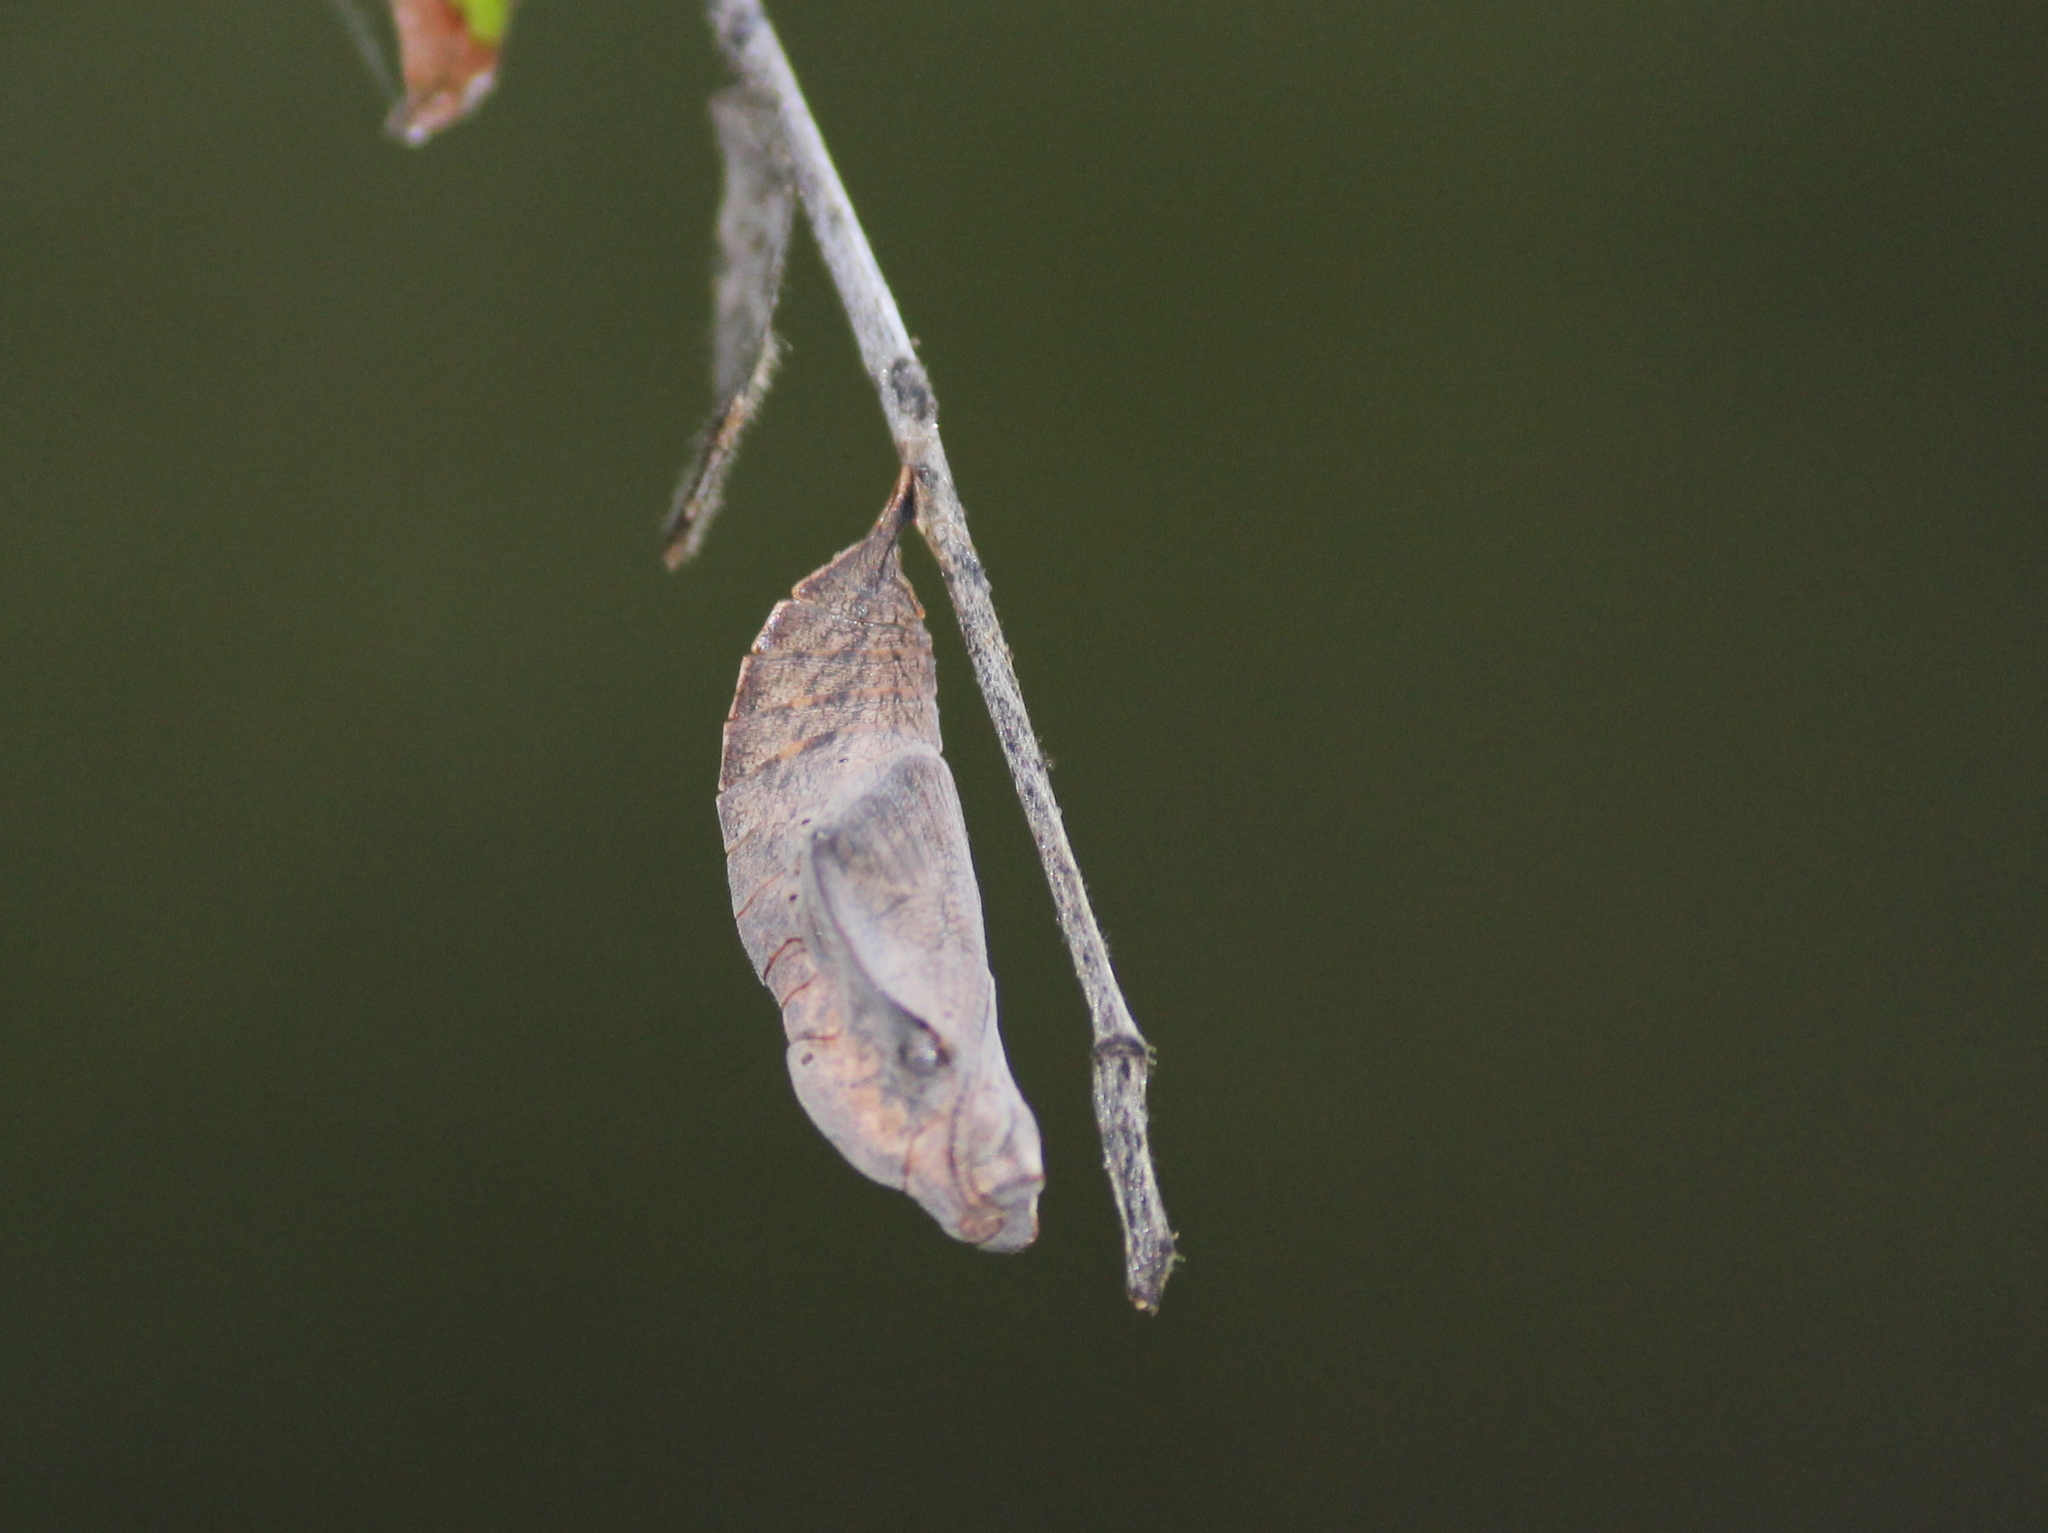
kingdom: Animalia
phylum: Arthropoda
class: Insecta
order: Lepidoptera
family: Nymphalidae
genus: Lasippa
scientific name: Lasippa viraja
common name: Yellowjack sailer
